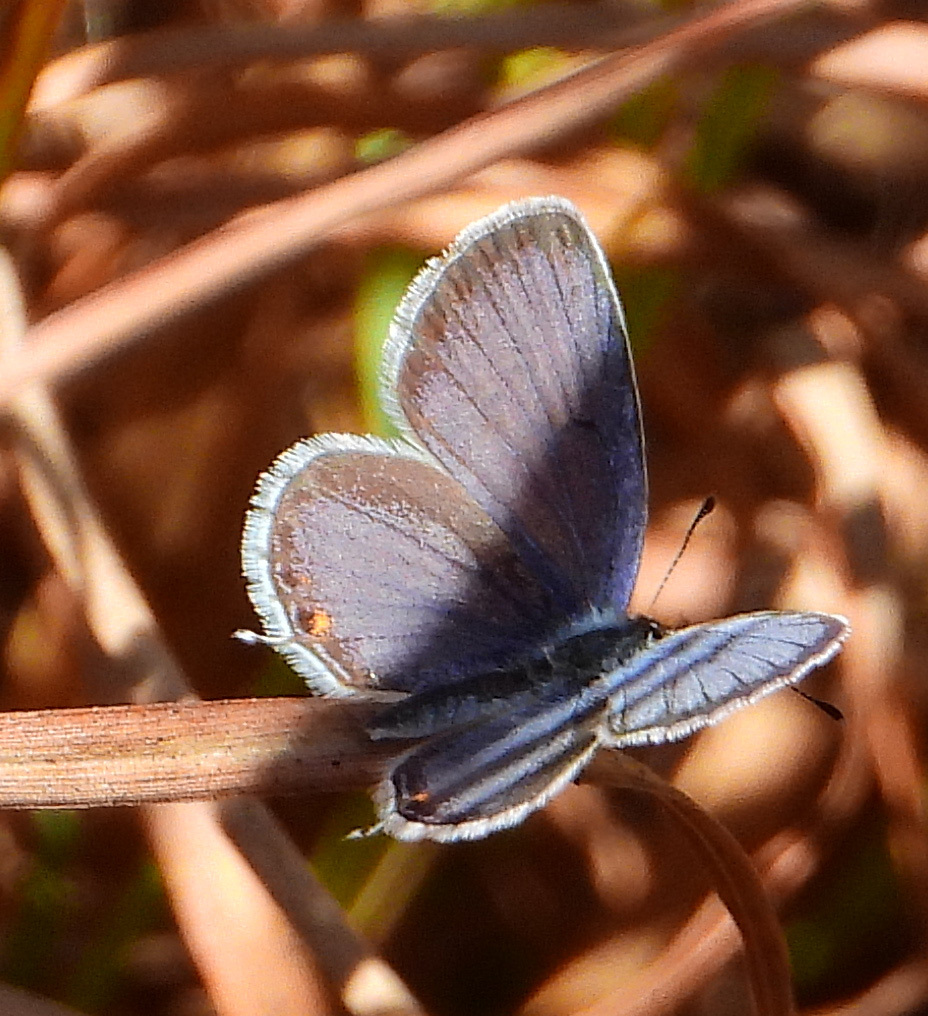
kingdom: Animalia
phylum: Arthropoda
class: Insecta
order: Lepidoptera
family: Lycaenidae
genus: Elkalyce
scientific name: Elkalyce comyntas
